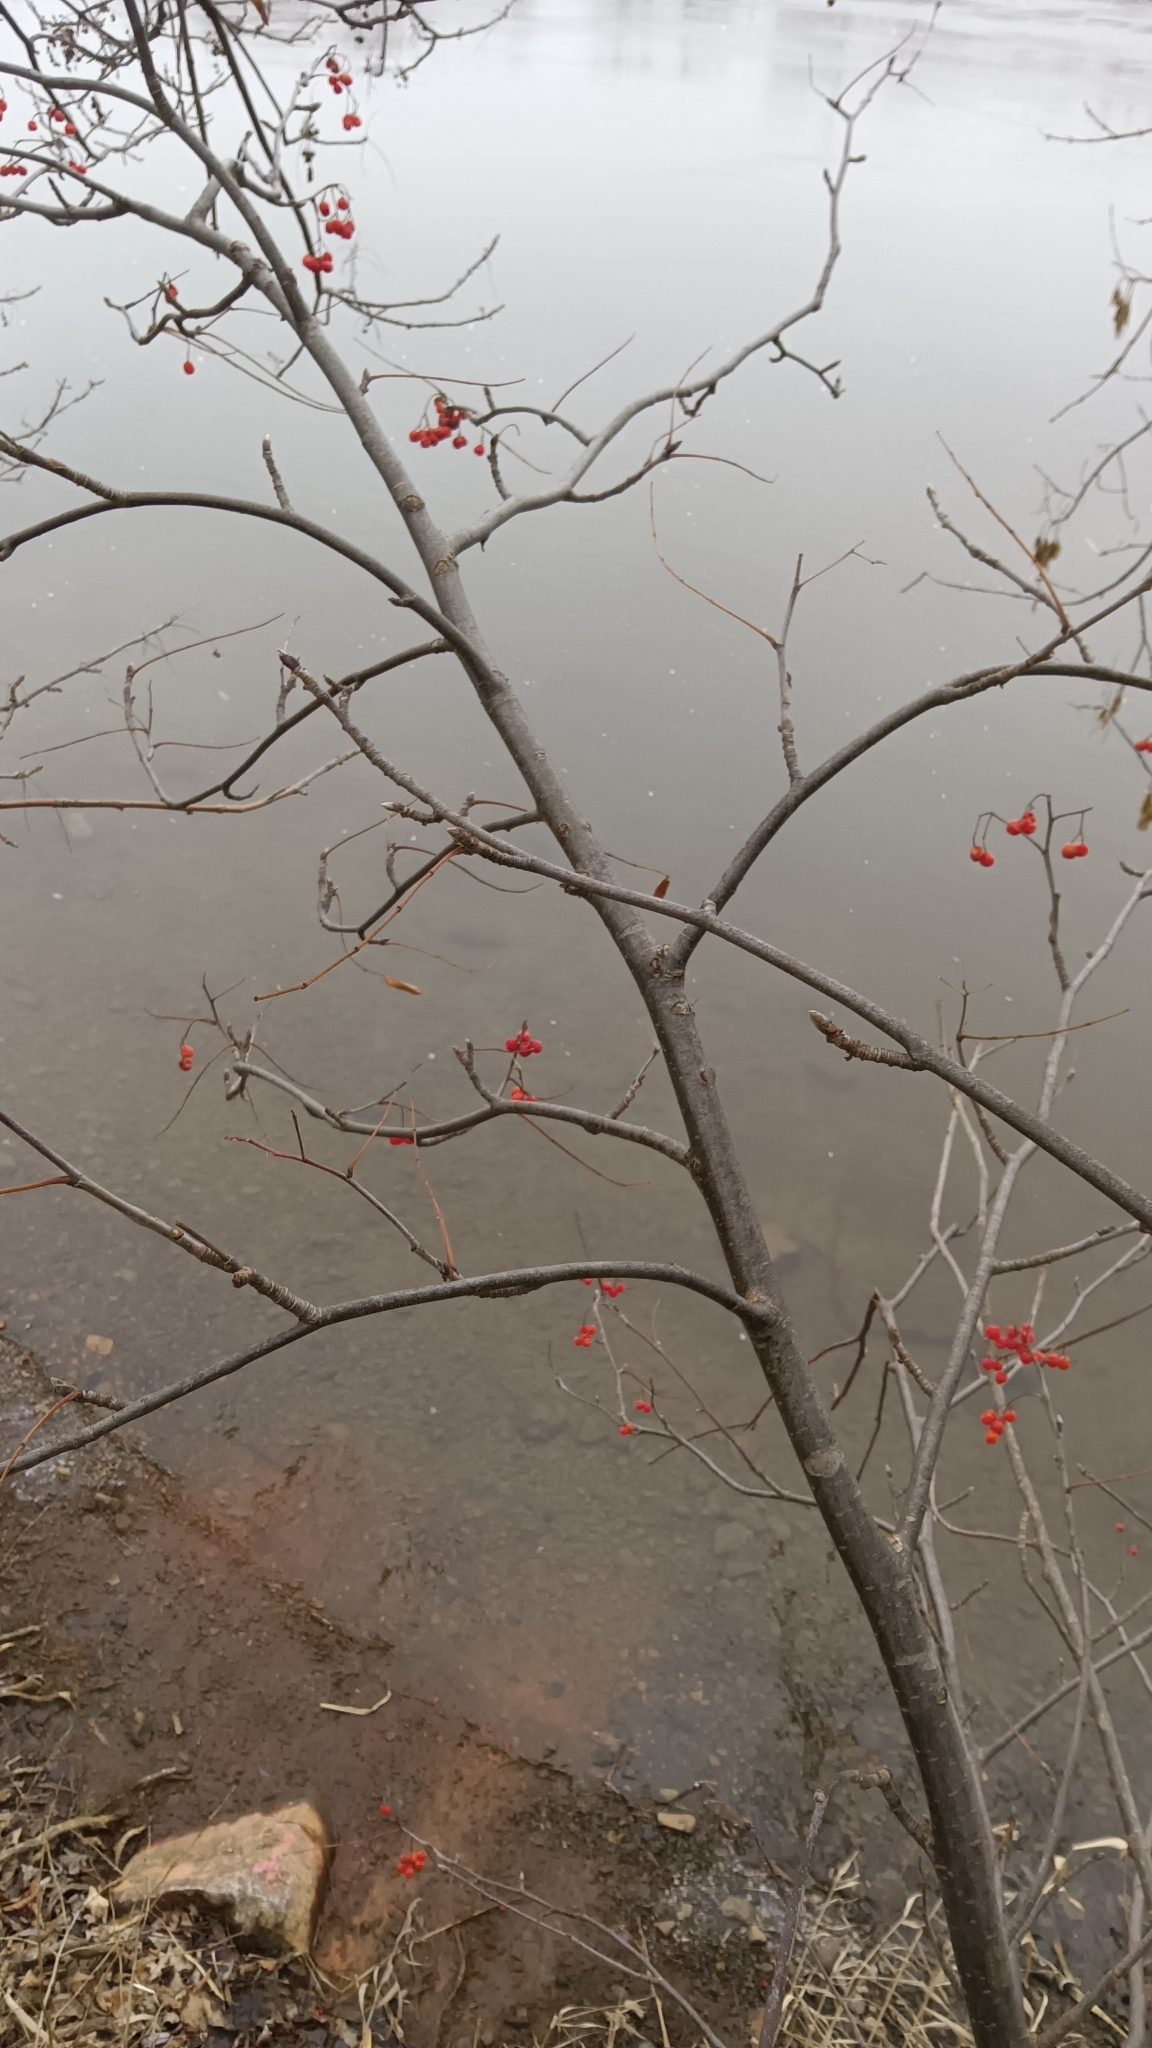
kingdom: Plantae
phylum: Tracheophyta
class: Magnoliopsida
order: Rosales
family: Rosaceae
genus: Sorbus
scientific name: Sorbus decora
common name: Northern mountain-ash
